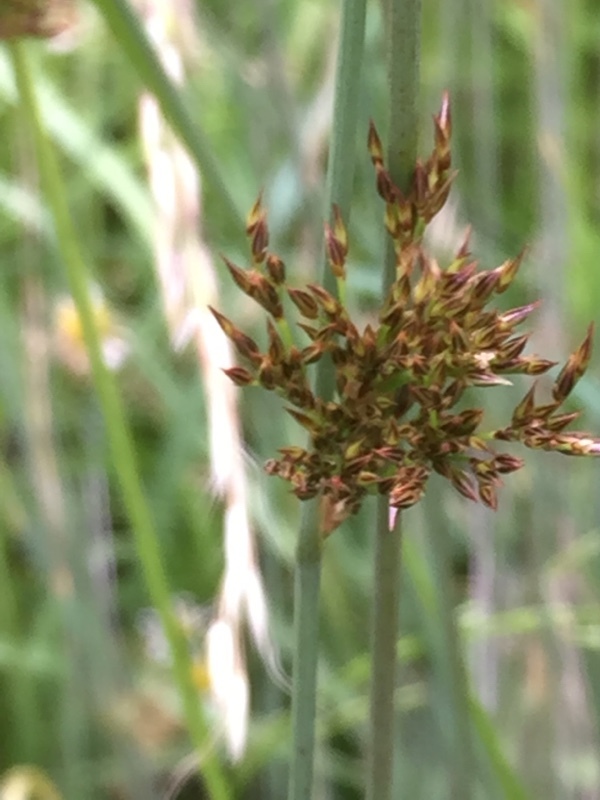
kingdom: Plantae
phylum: Tracheophyta
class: Liliopsida
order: Poales
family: Juncaceae
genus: Juncus
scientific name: Juncus inflexus
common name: Hard rush
